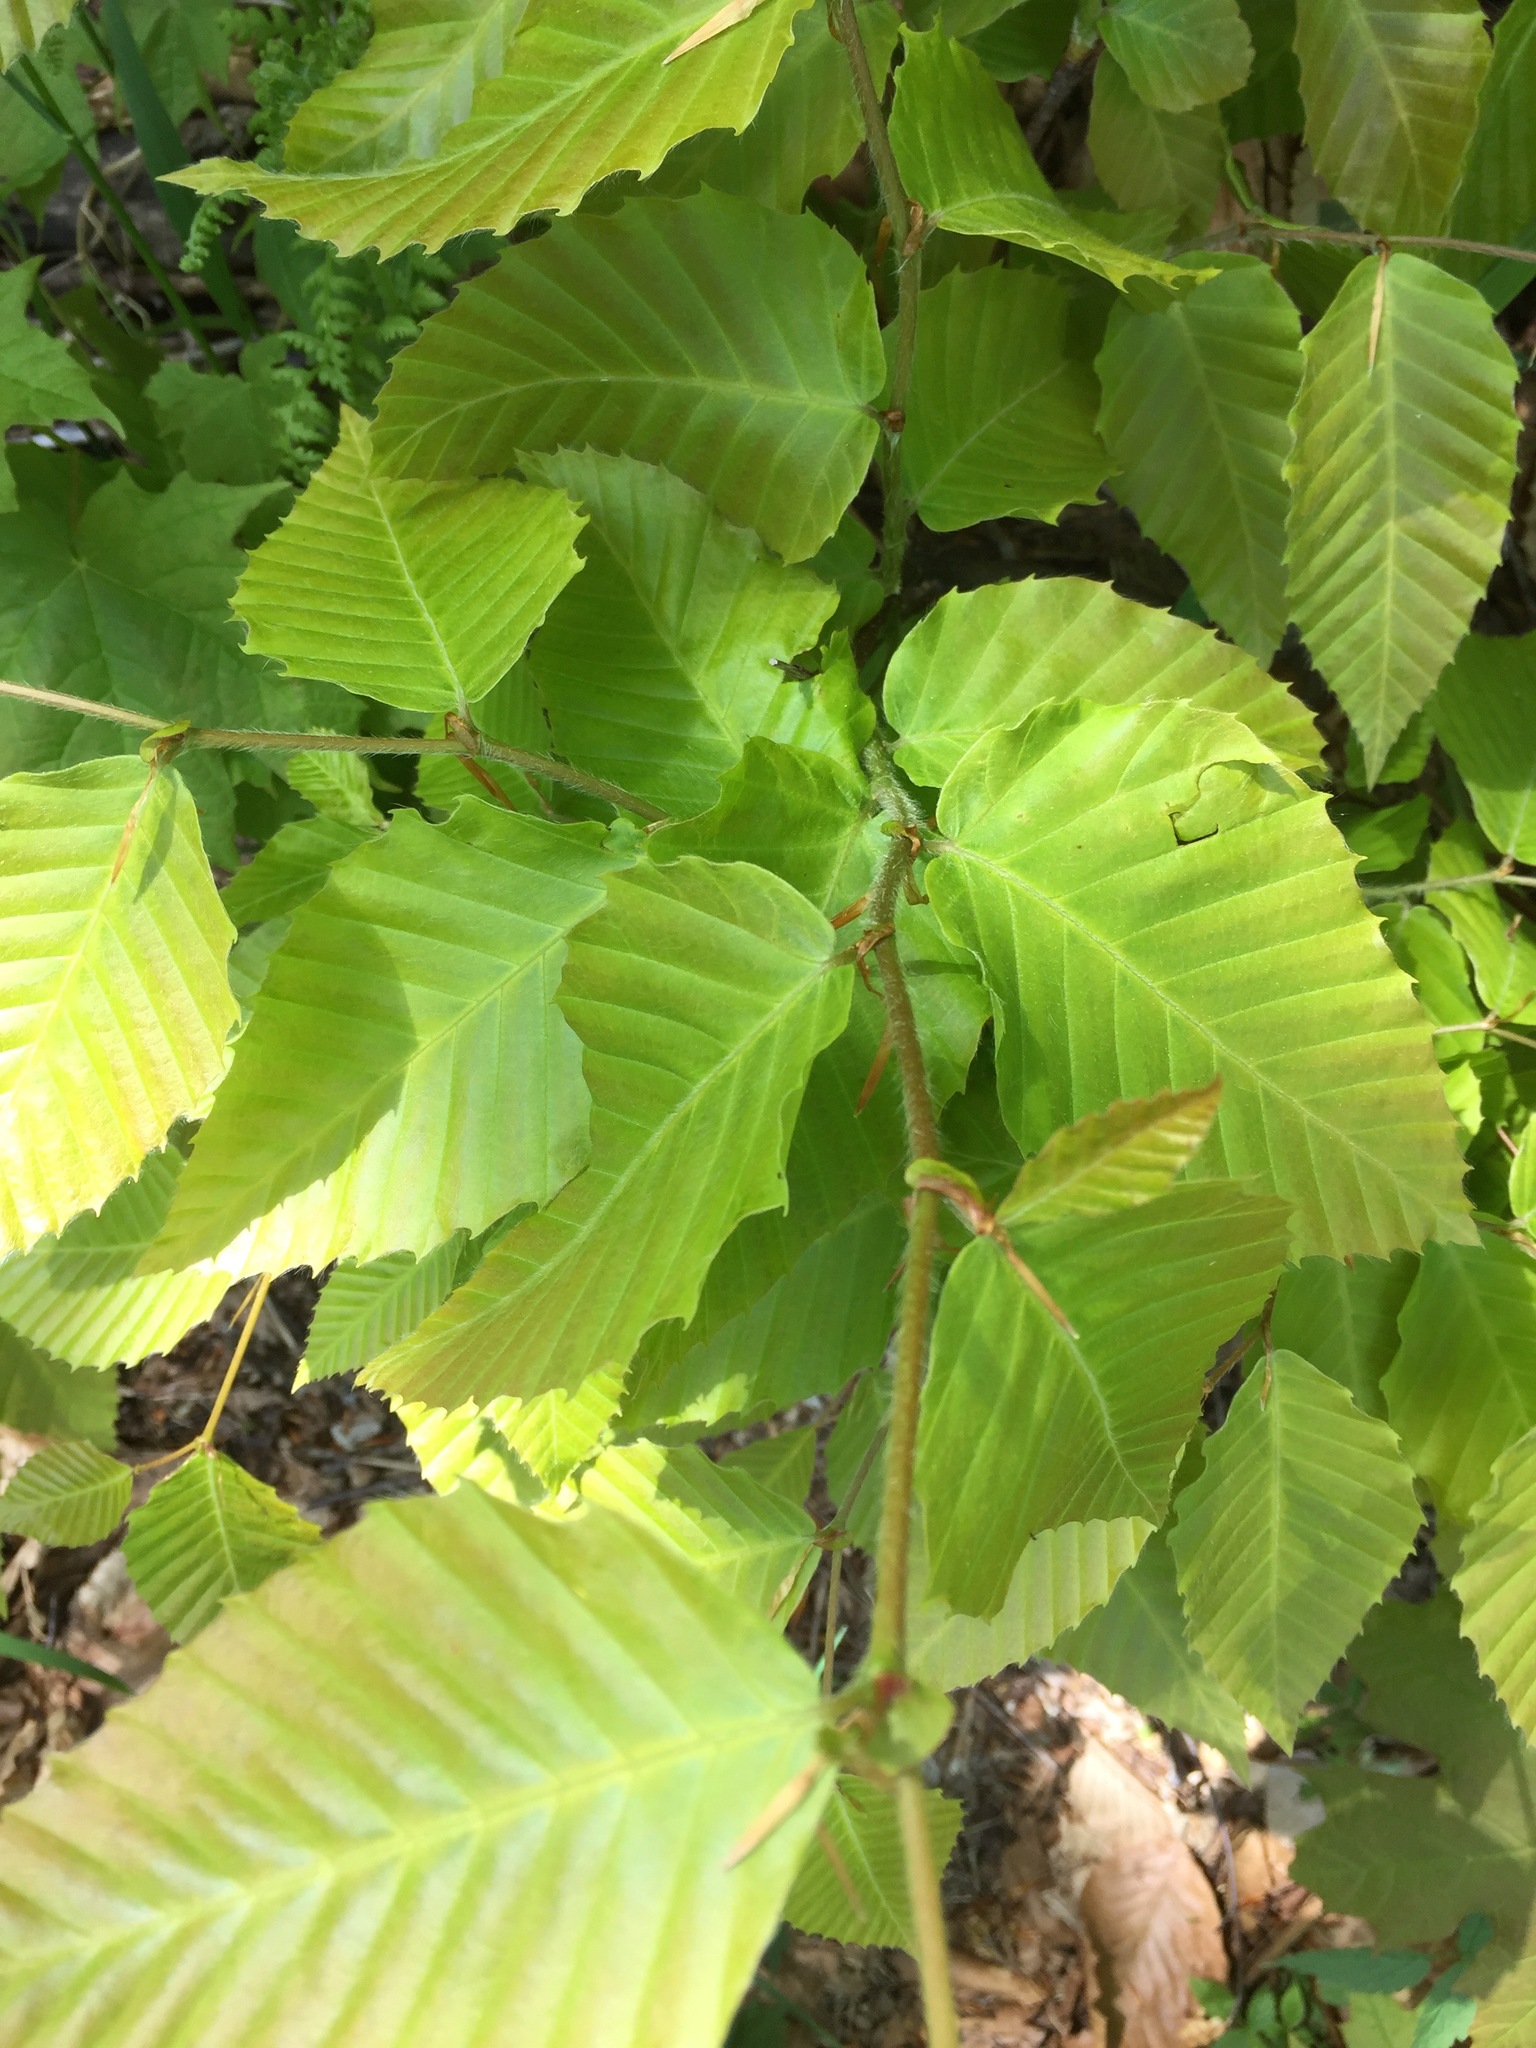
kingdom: Plantae
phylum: Tracheophyta
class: Magnoliopsida
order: Fagales
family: Fagaceae
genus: Fagus
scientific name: Fagus grandifolia
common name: American beech
